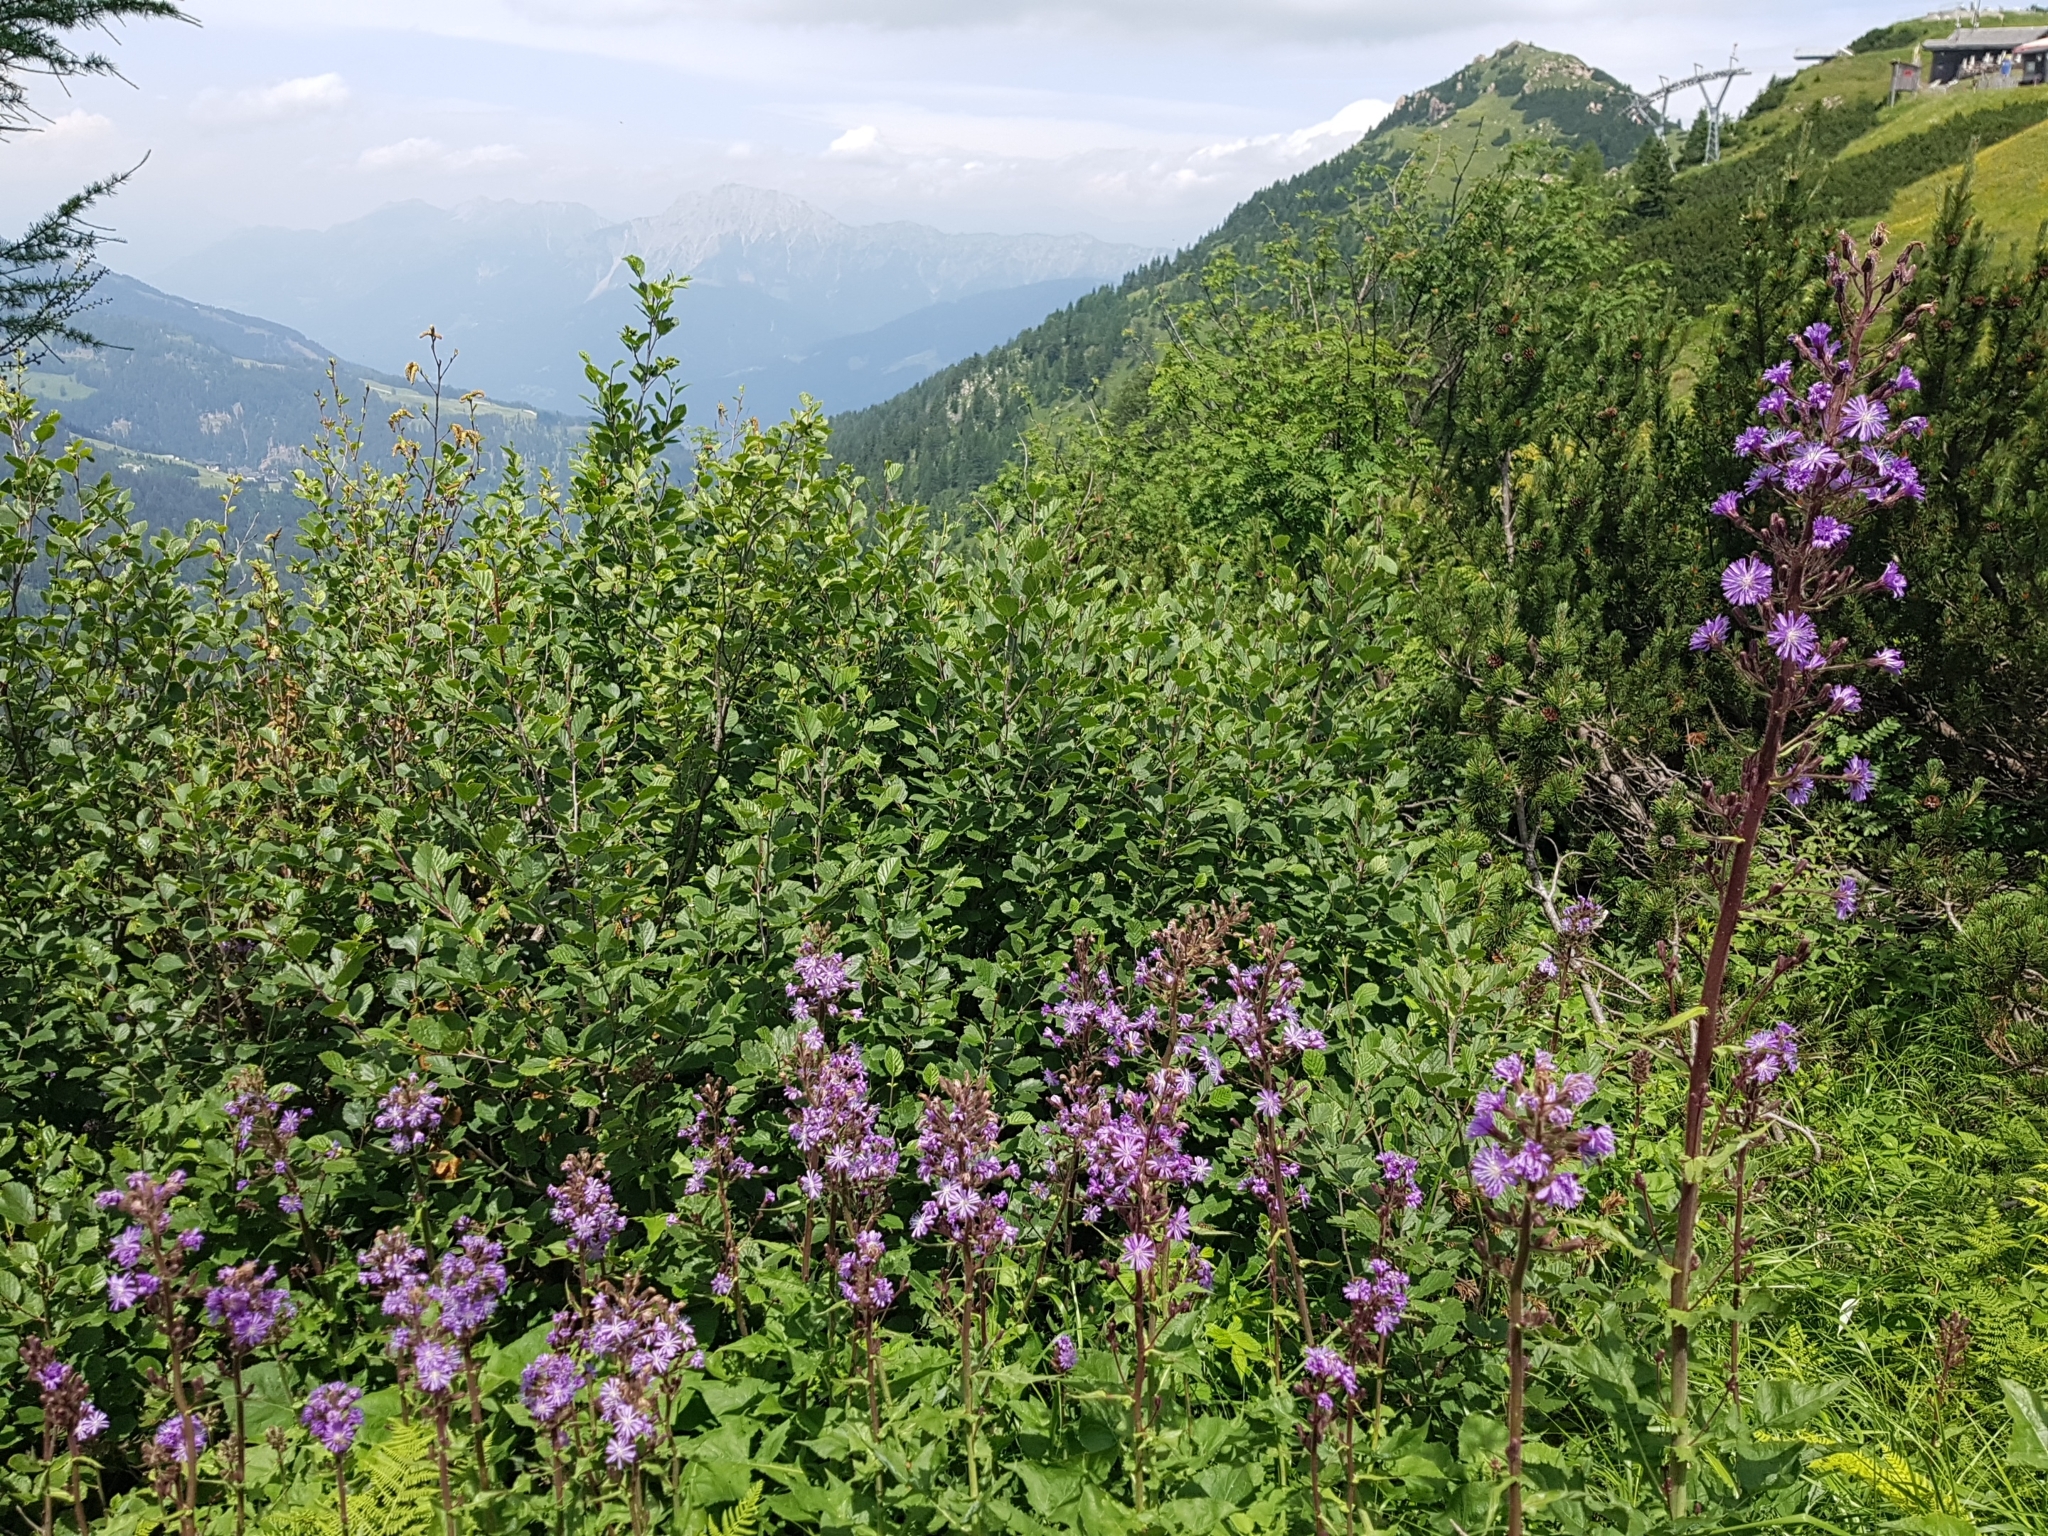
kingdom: Plantae
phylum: Tracheophyta
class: Magnoliopsida
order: Asterales
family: Asteraceae
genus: Cicerbita
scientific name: Cicerbita alpina
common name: Alpine blue-sow-thistle
